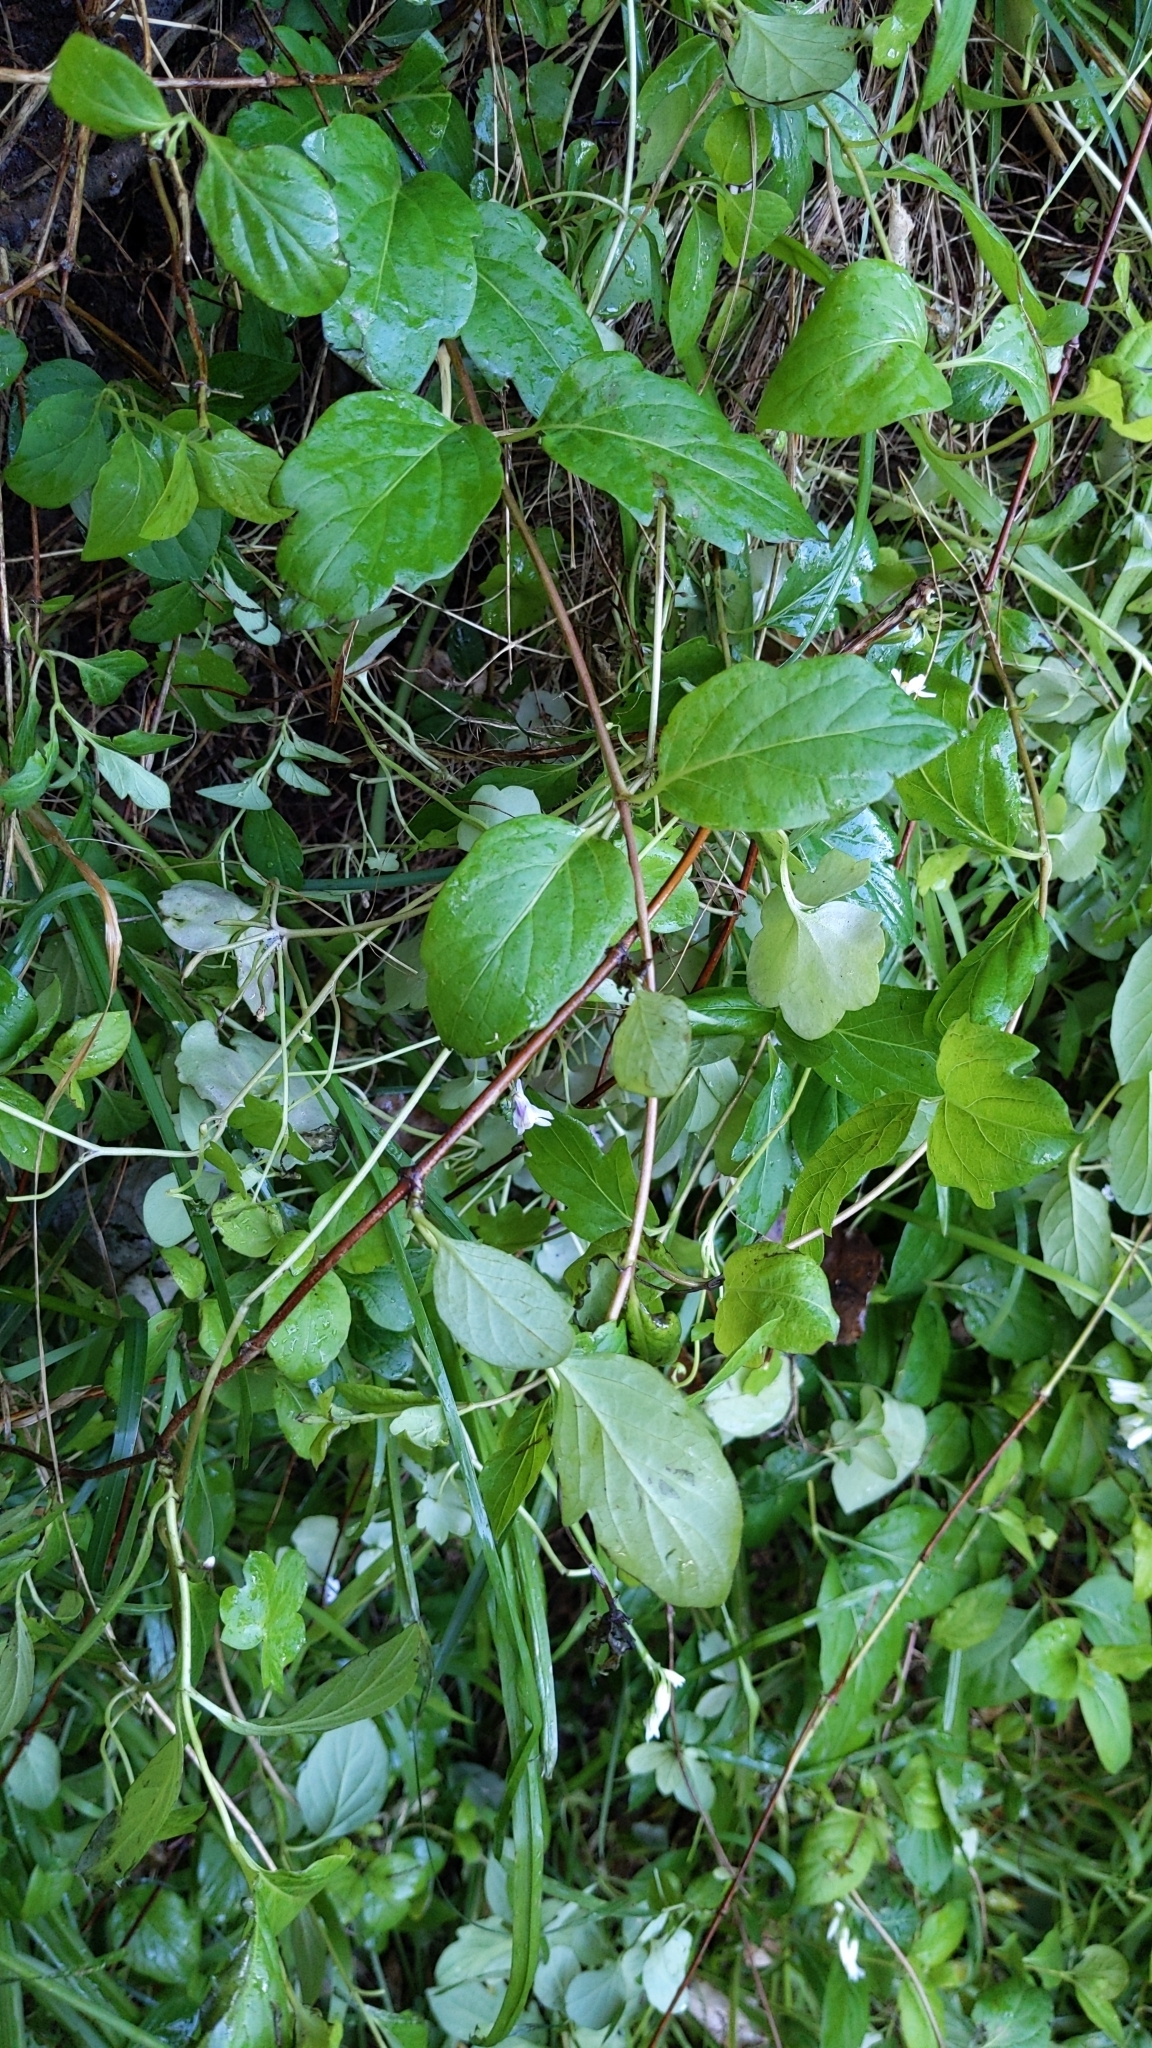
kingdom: Plantae
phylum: Tracheophyta
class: Magnoliopsida
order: Dipsacales
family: Caprifoliaceae
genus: Lonicera
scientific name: Lonicera japonica
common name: Japanese honeysuckle
